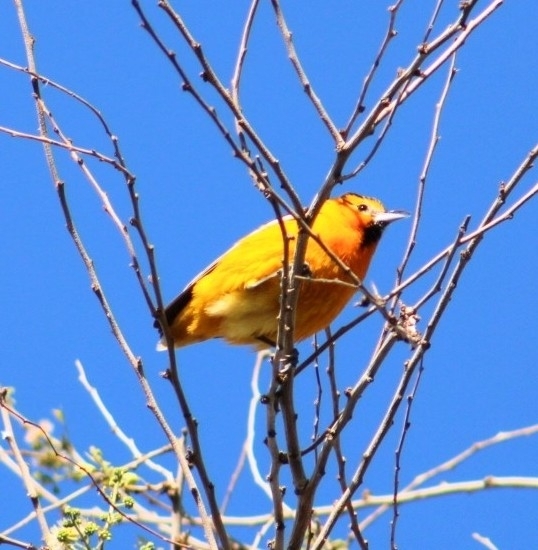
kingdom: Animalia
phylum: Chordata
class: Aves
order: Passeriformes
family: Icteridae
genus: Icterus
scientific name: Icterus bullockii
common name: Bullock's oriole
